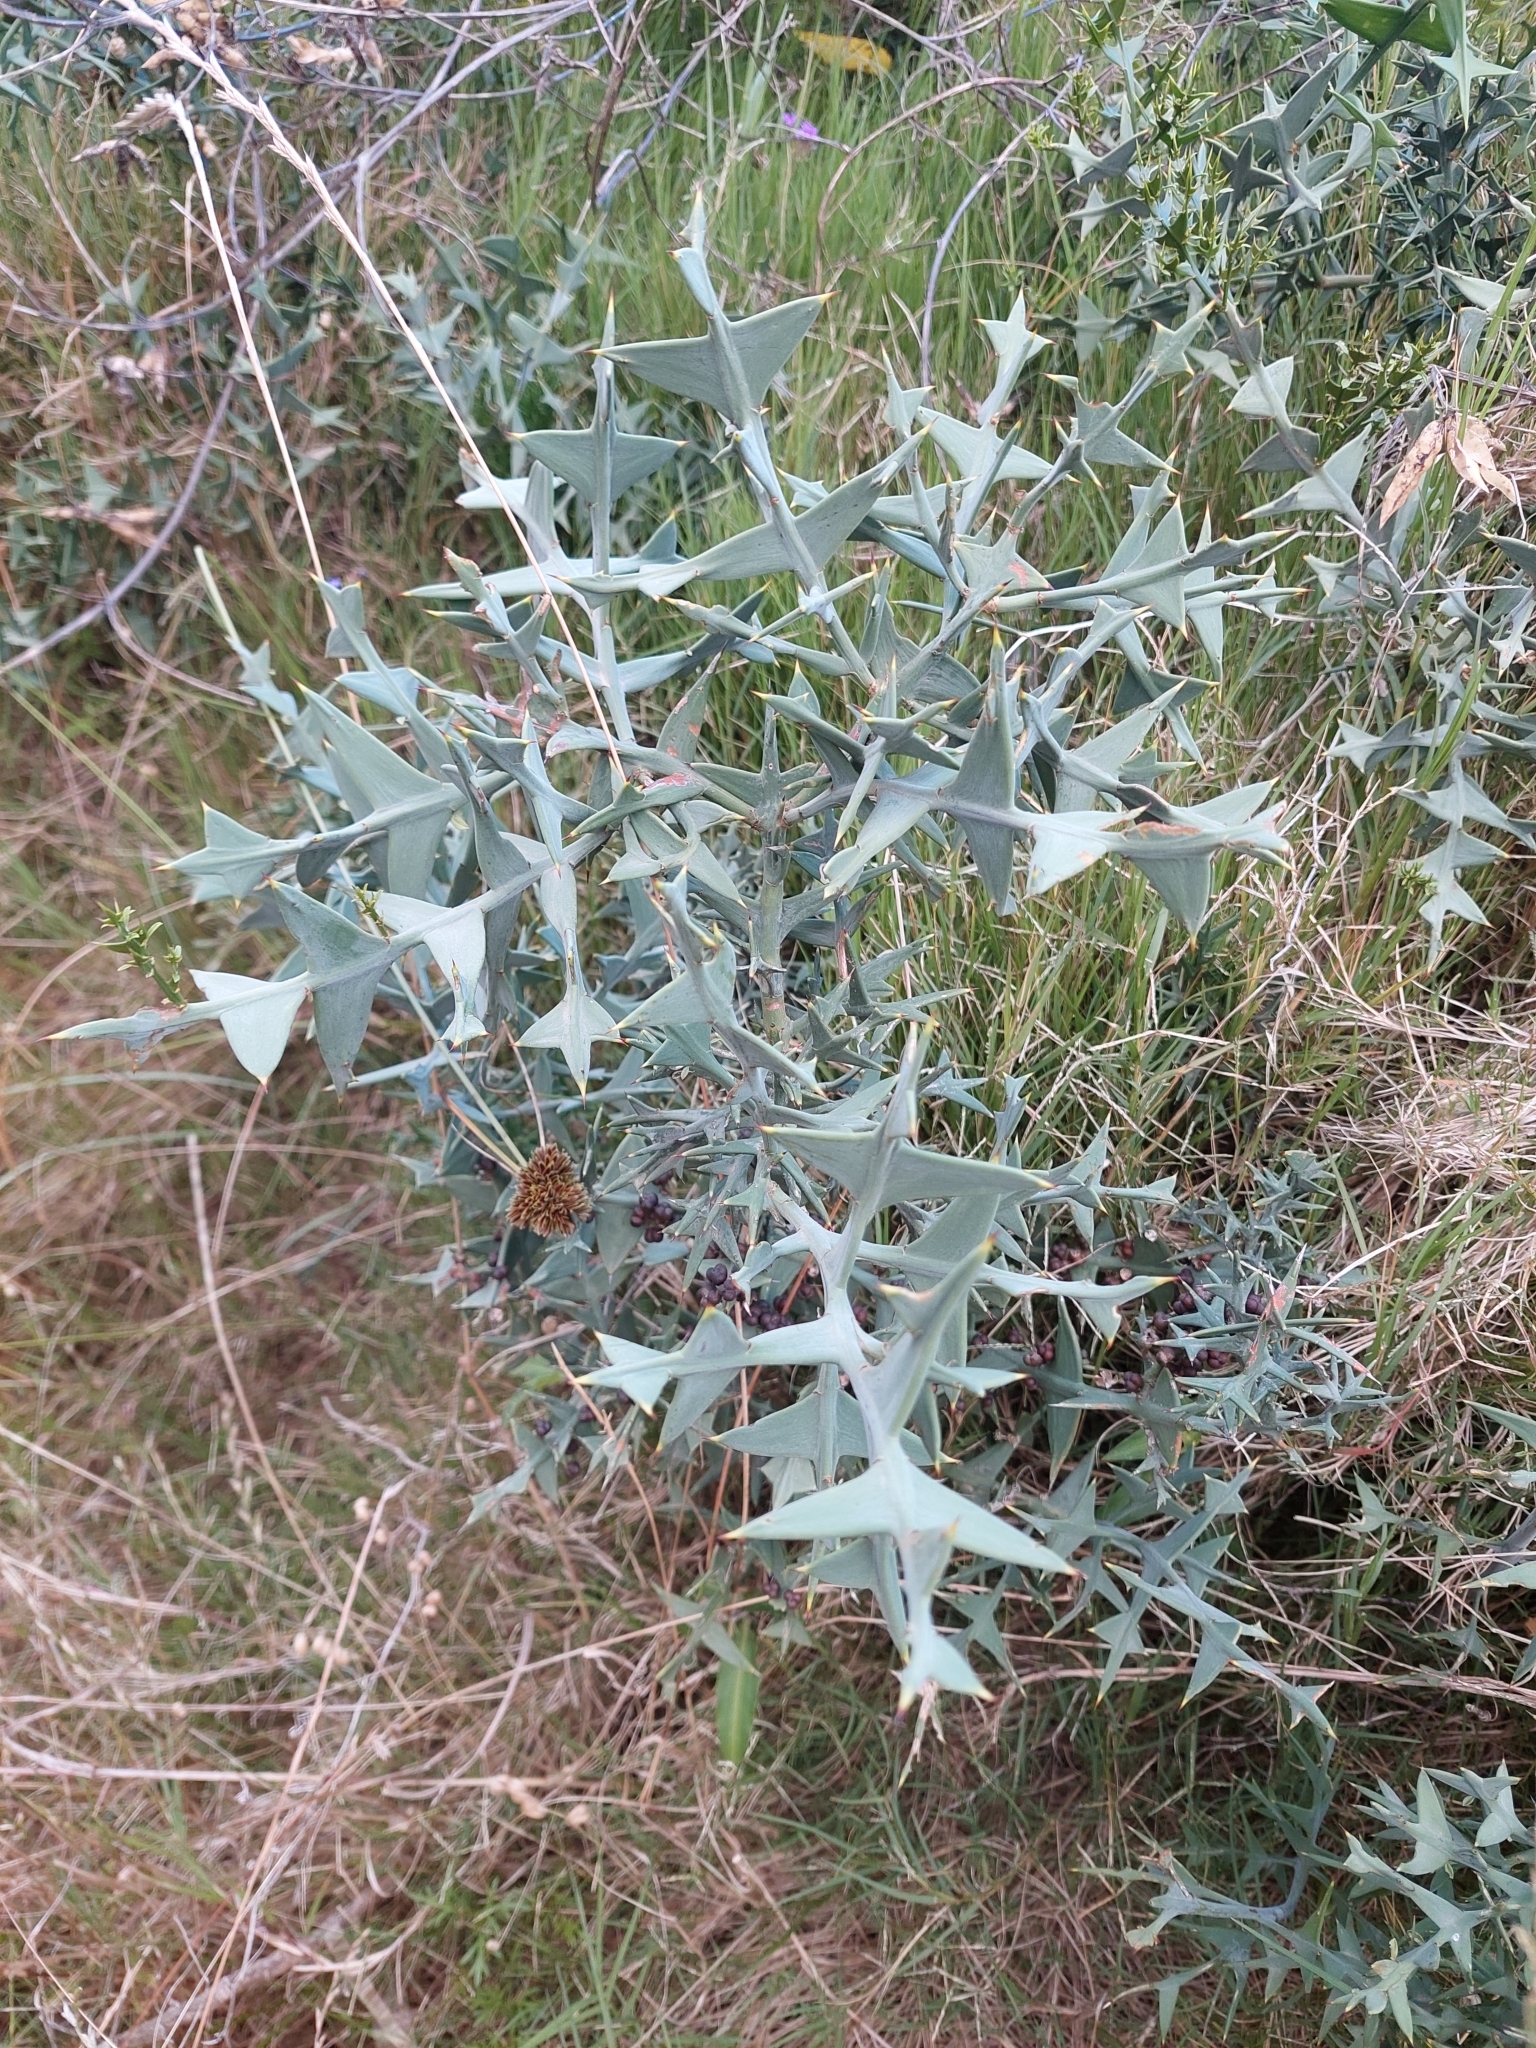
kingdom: Plantae
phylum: Tracheophyta
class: Magnoliopsida
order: Rosales
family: Rhamnaceae
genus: Colletia
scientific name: Colletia paradoxa
